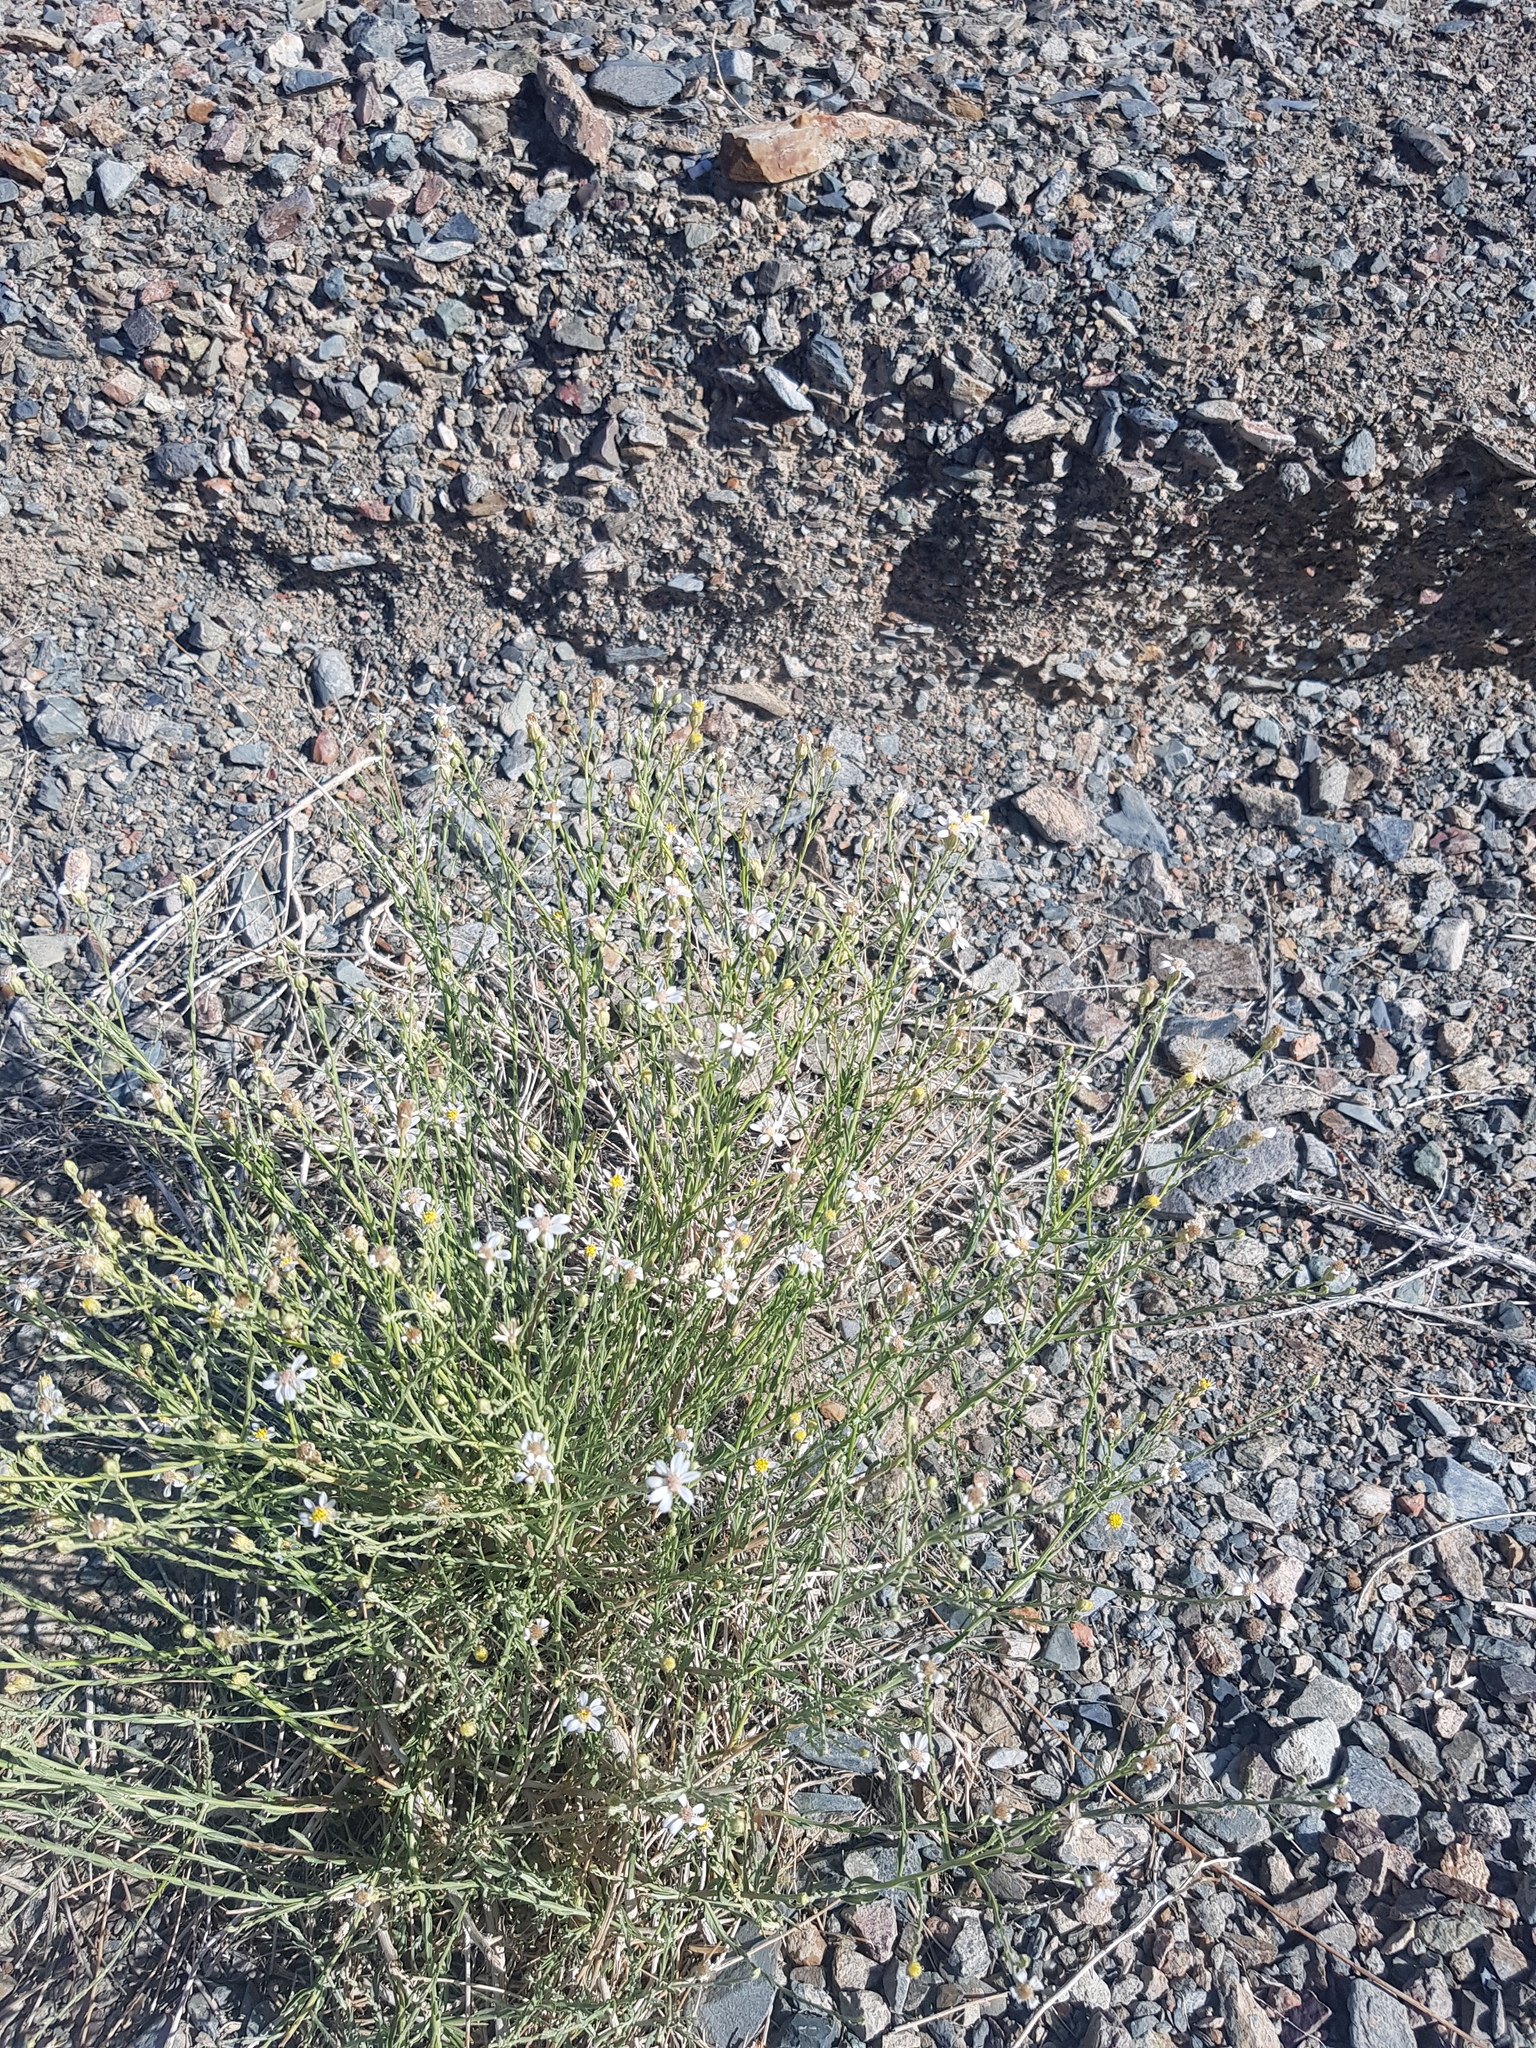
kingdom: Plantae
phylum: Tracheophyta
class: Magnoliopsida
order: Asterales
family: Asteraceae
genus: Asterothamnus
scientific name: Asterothamnus molliusculus
